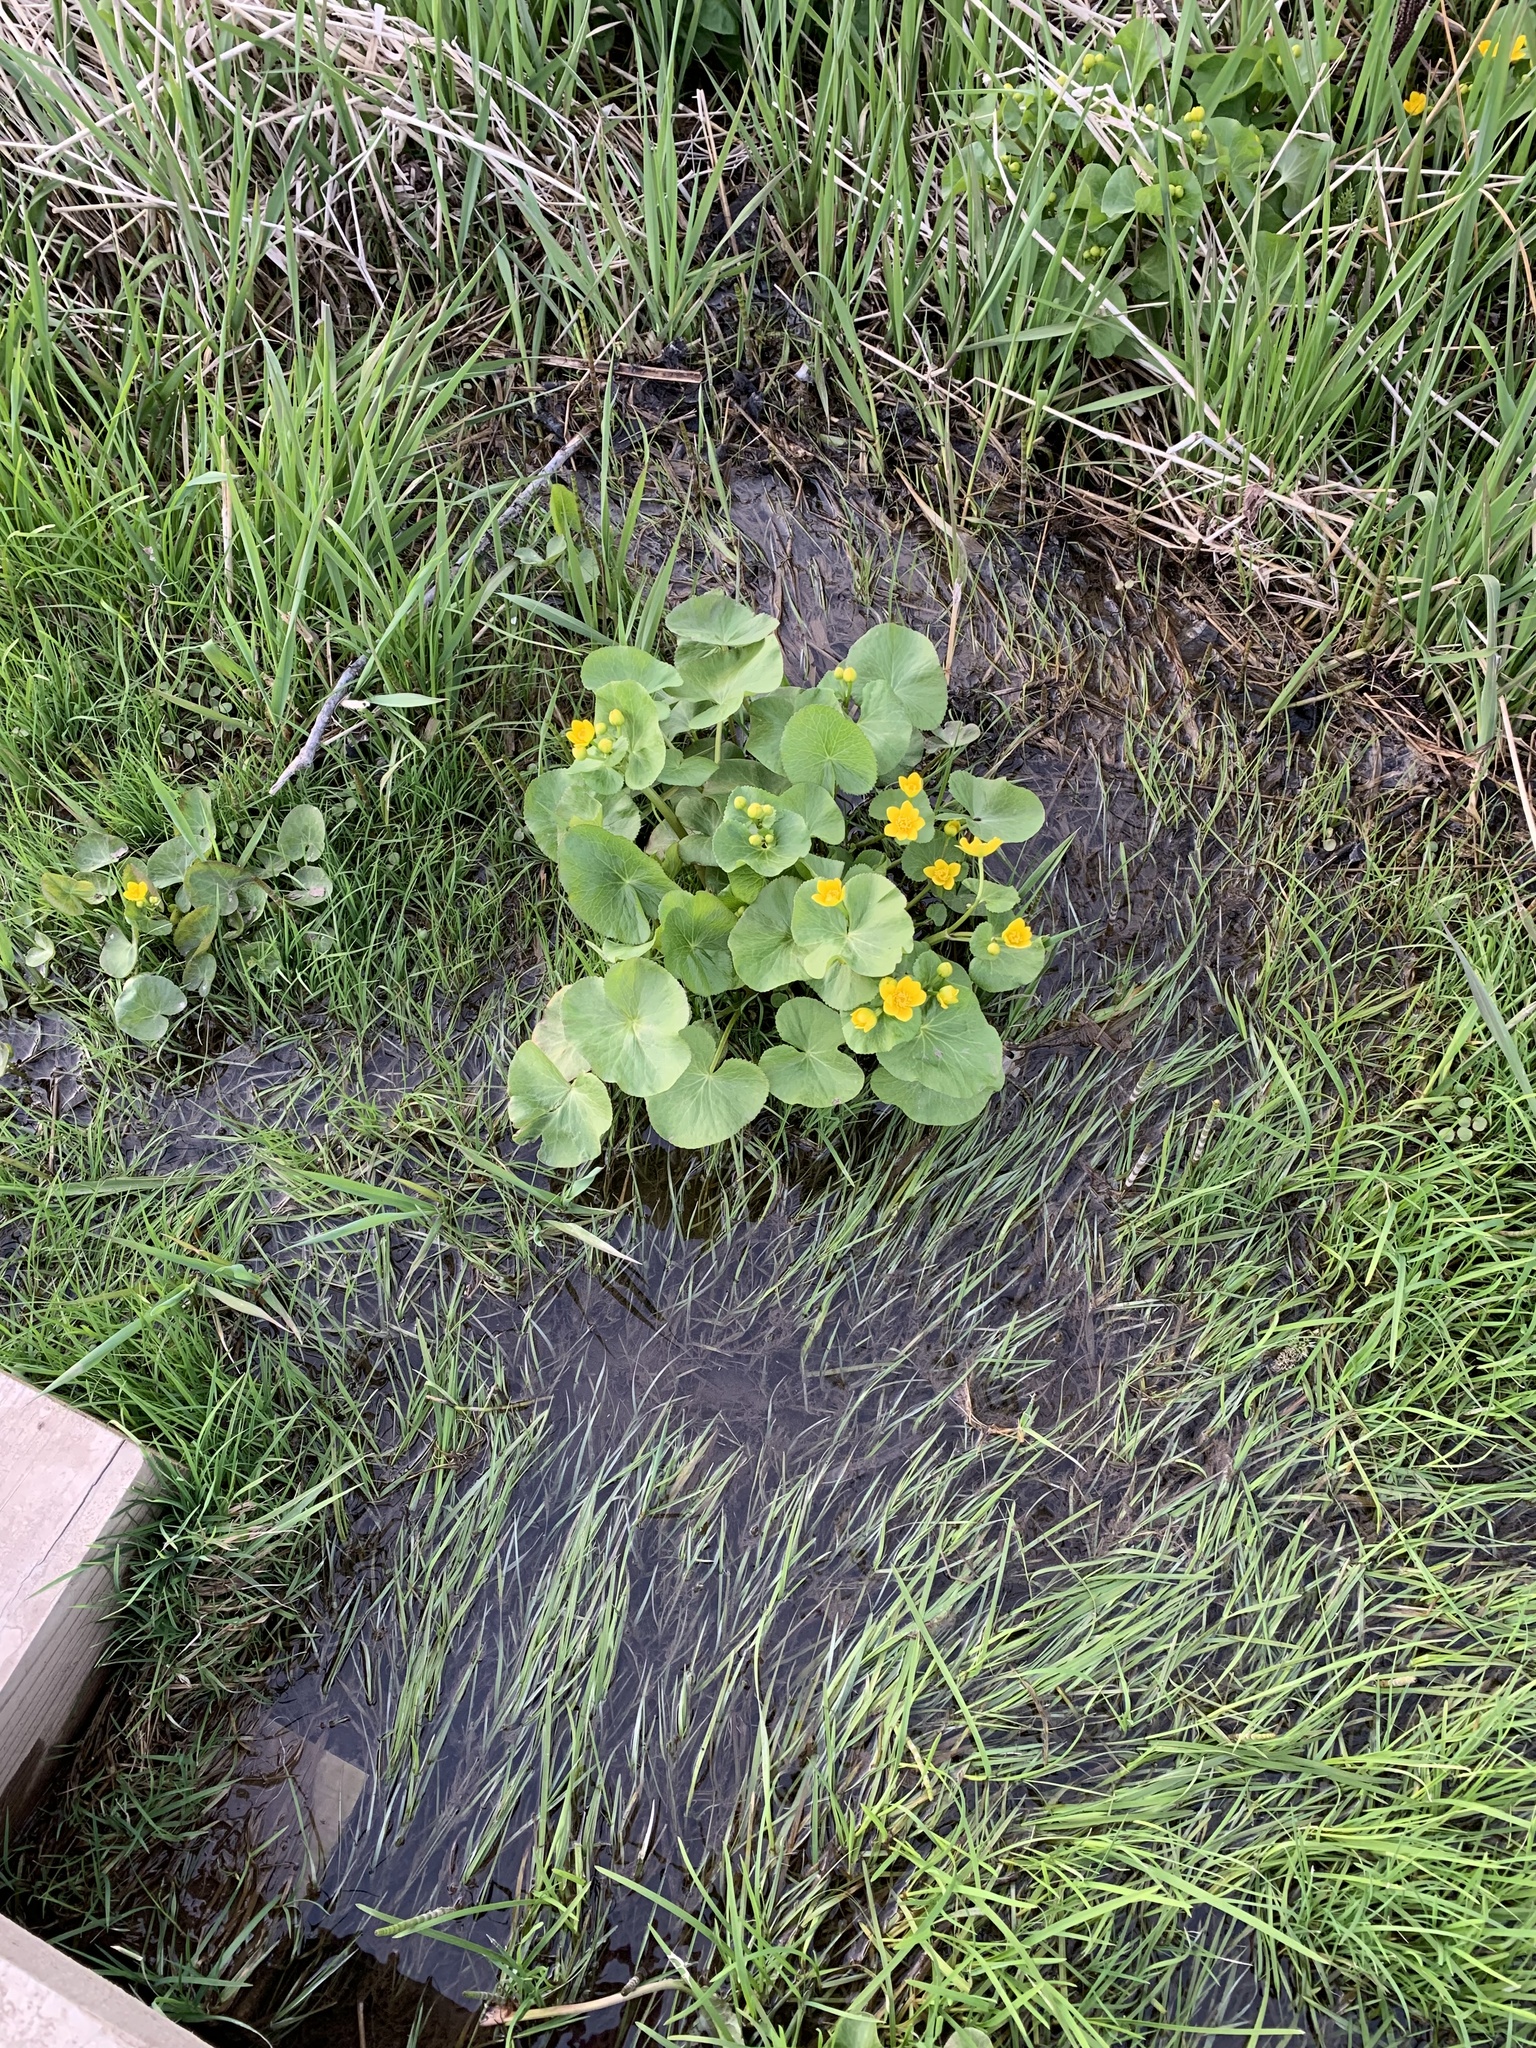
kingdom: Plantae
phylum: Tracheophyta
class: Magnoliopsida
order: Ranunculales
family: Ranunculaceae
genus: Caltha
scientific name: Caltha palustris
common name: Marsh marigold
